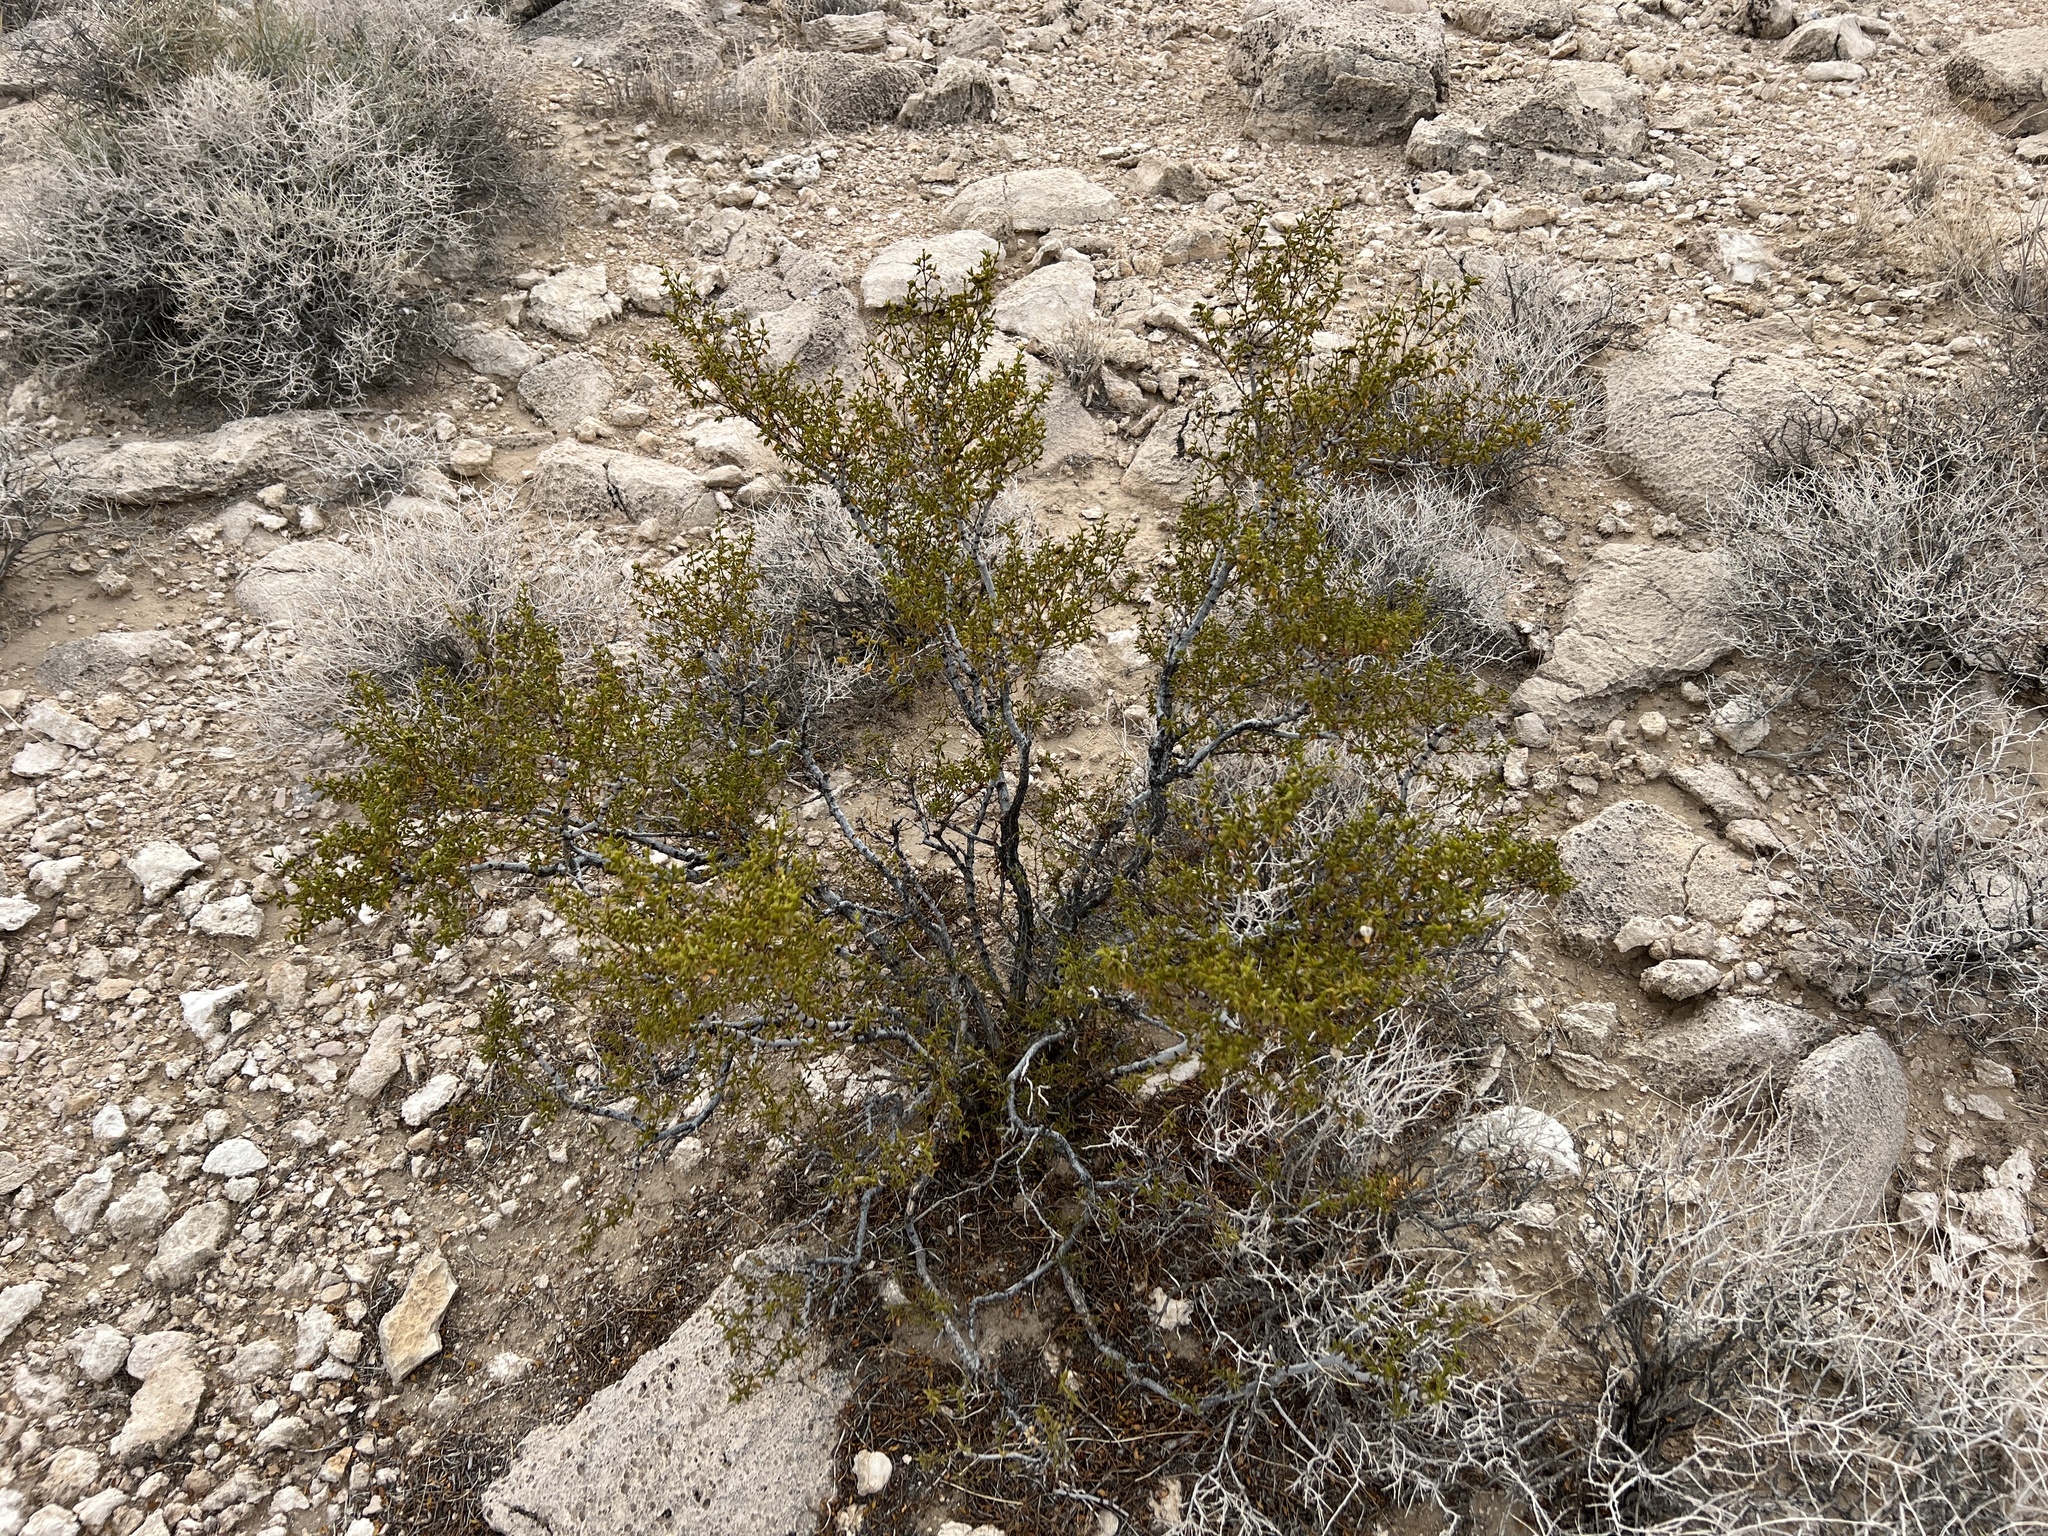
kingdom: Plantae
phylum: Tracheophyta
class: Magnoliopsida
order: Zygophyllales
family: Zygophyllaceae
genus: Larrea
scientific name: Larrea tridentata
